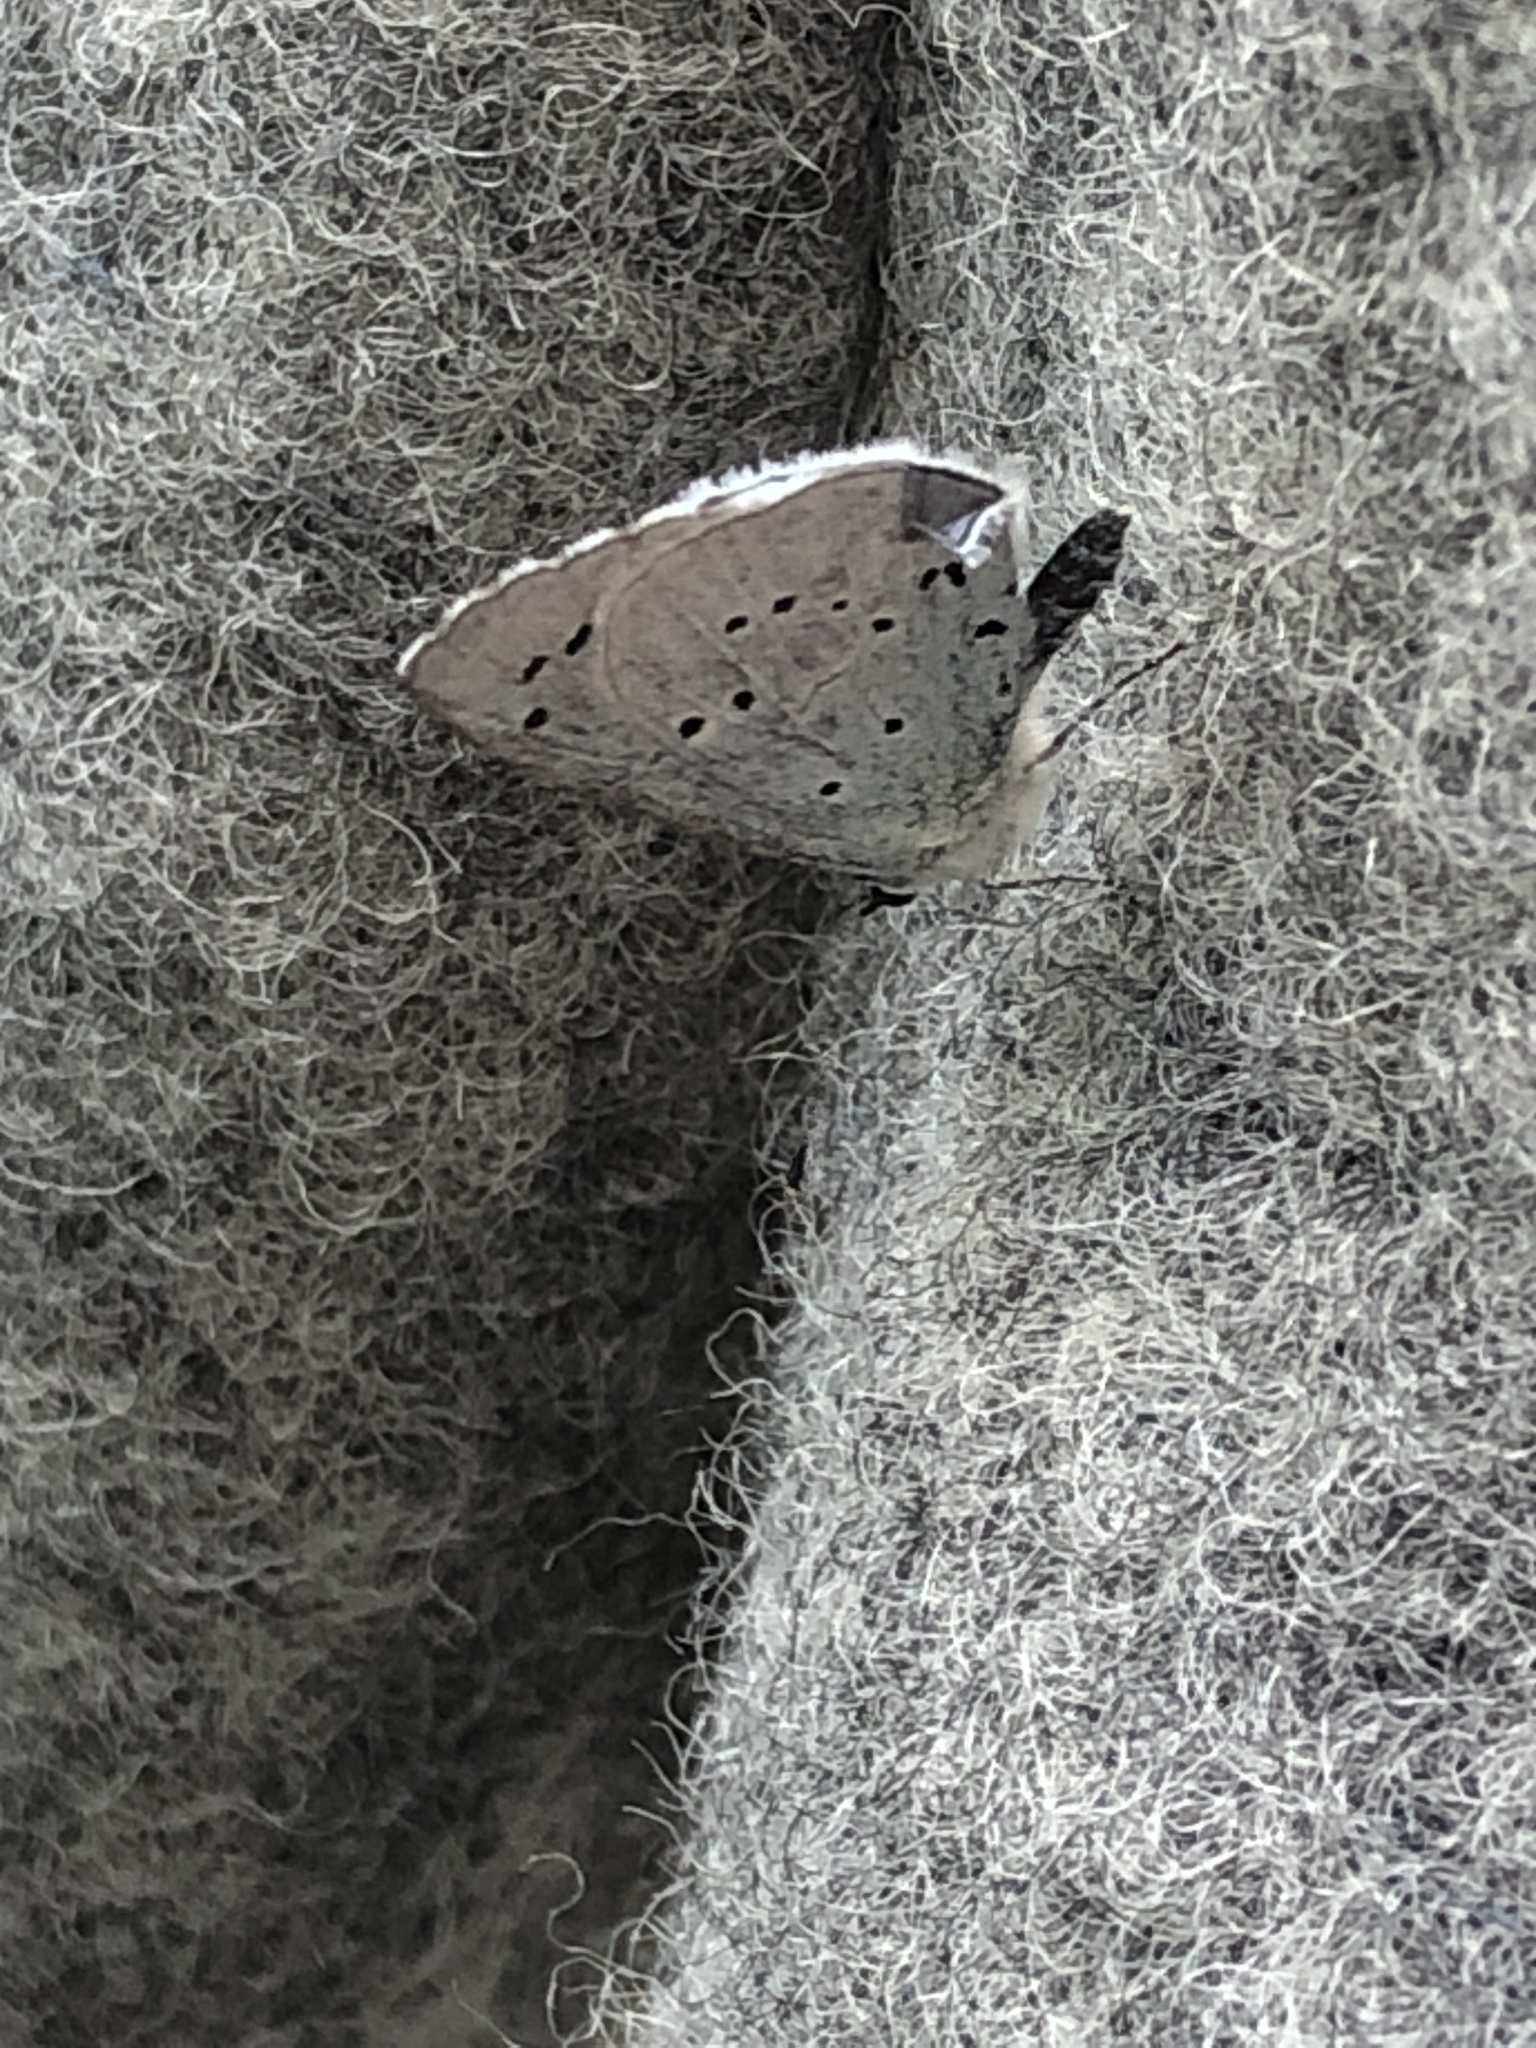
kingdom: Animalia
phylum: Arthropoda
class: Insecta
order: Lepidoptera
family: Lycaenidae
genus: Celastrina
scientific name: Celastrina argiolus
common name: Holly blue
